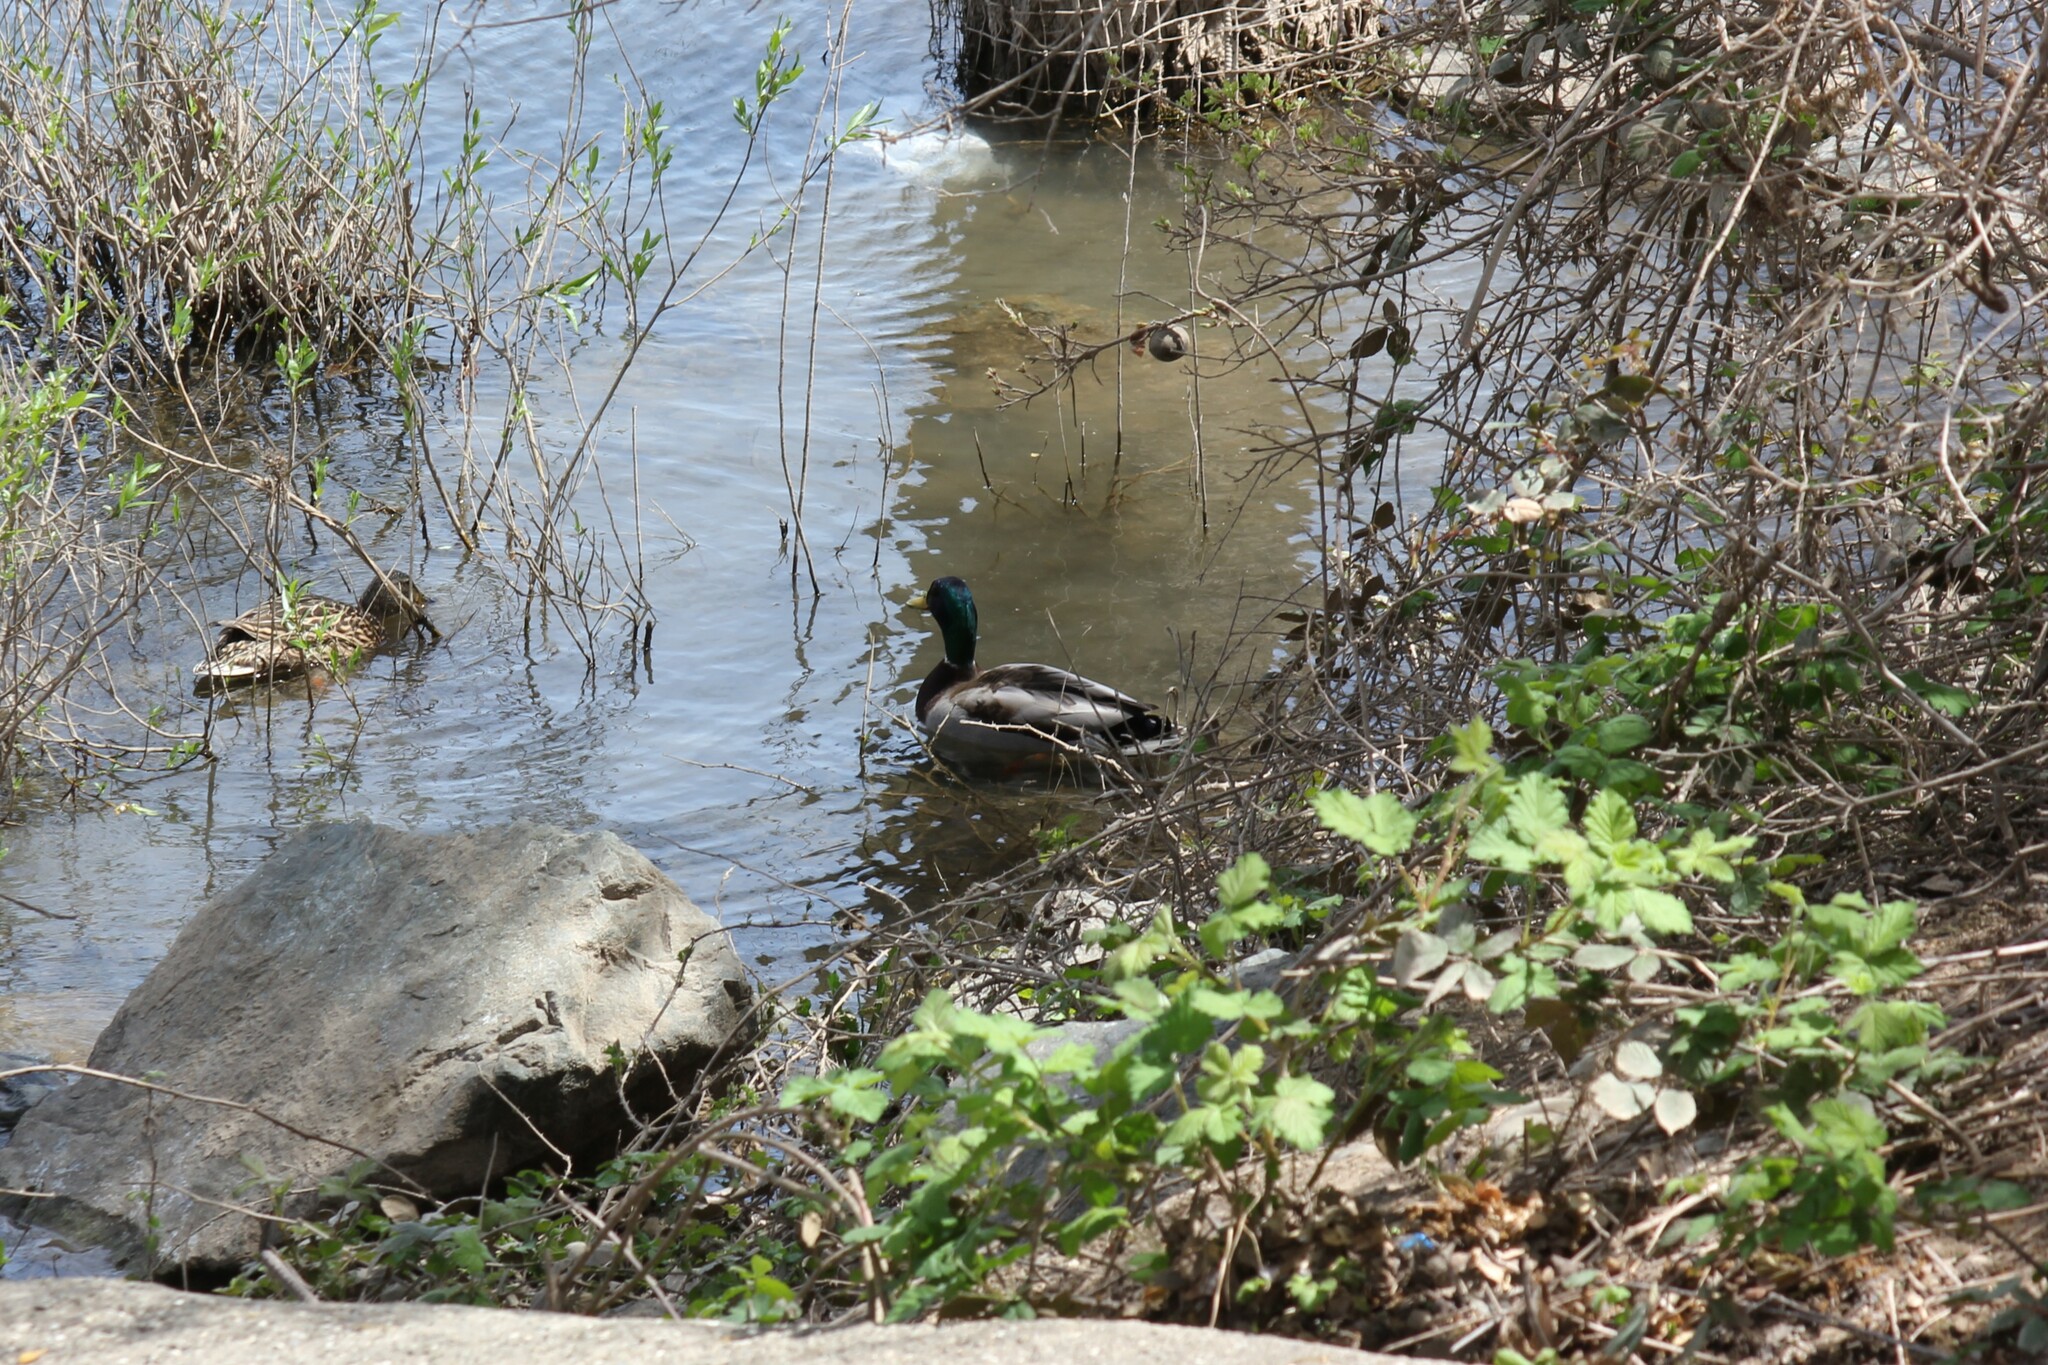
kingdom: Animalia
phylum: Chordata
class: Aves
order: Anseriformes
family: Anatidae
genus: Anas
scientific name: Anas platyrhynchos
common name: Mallard
